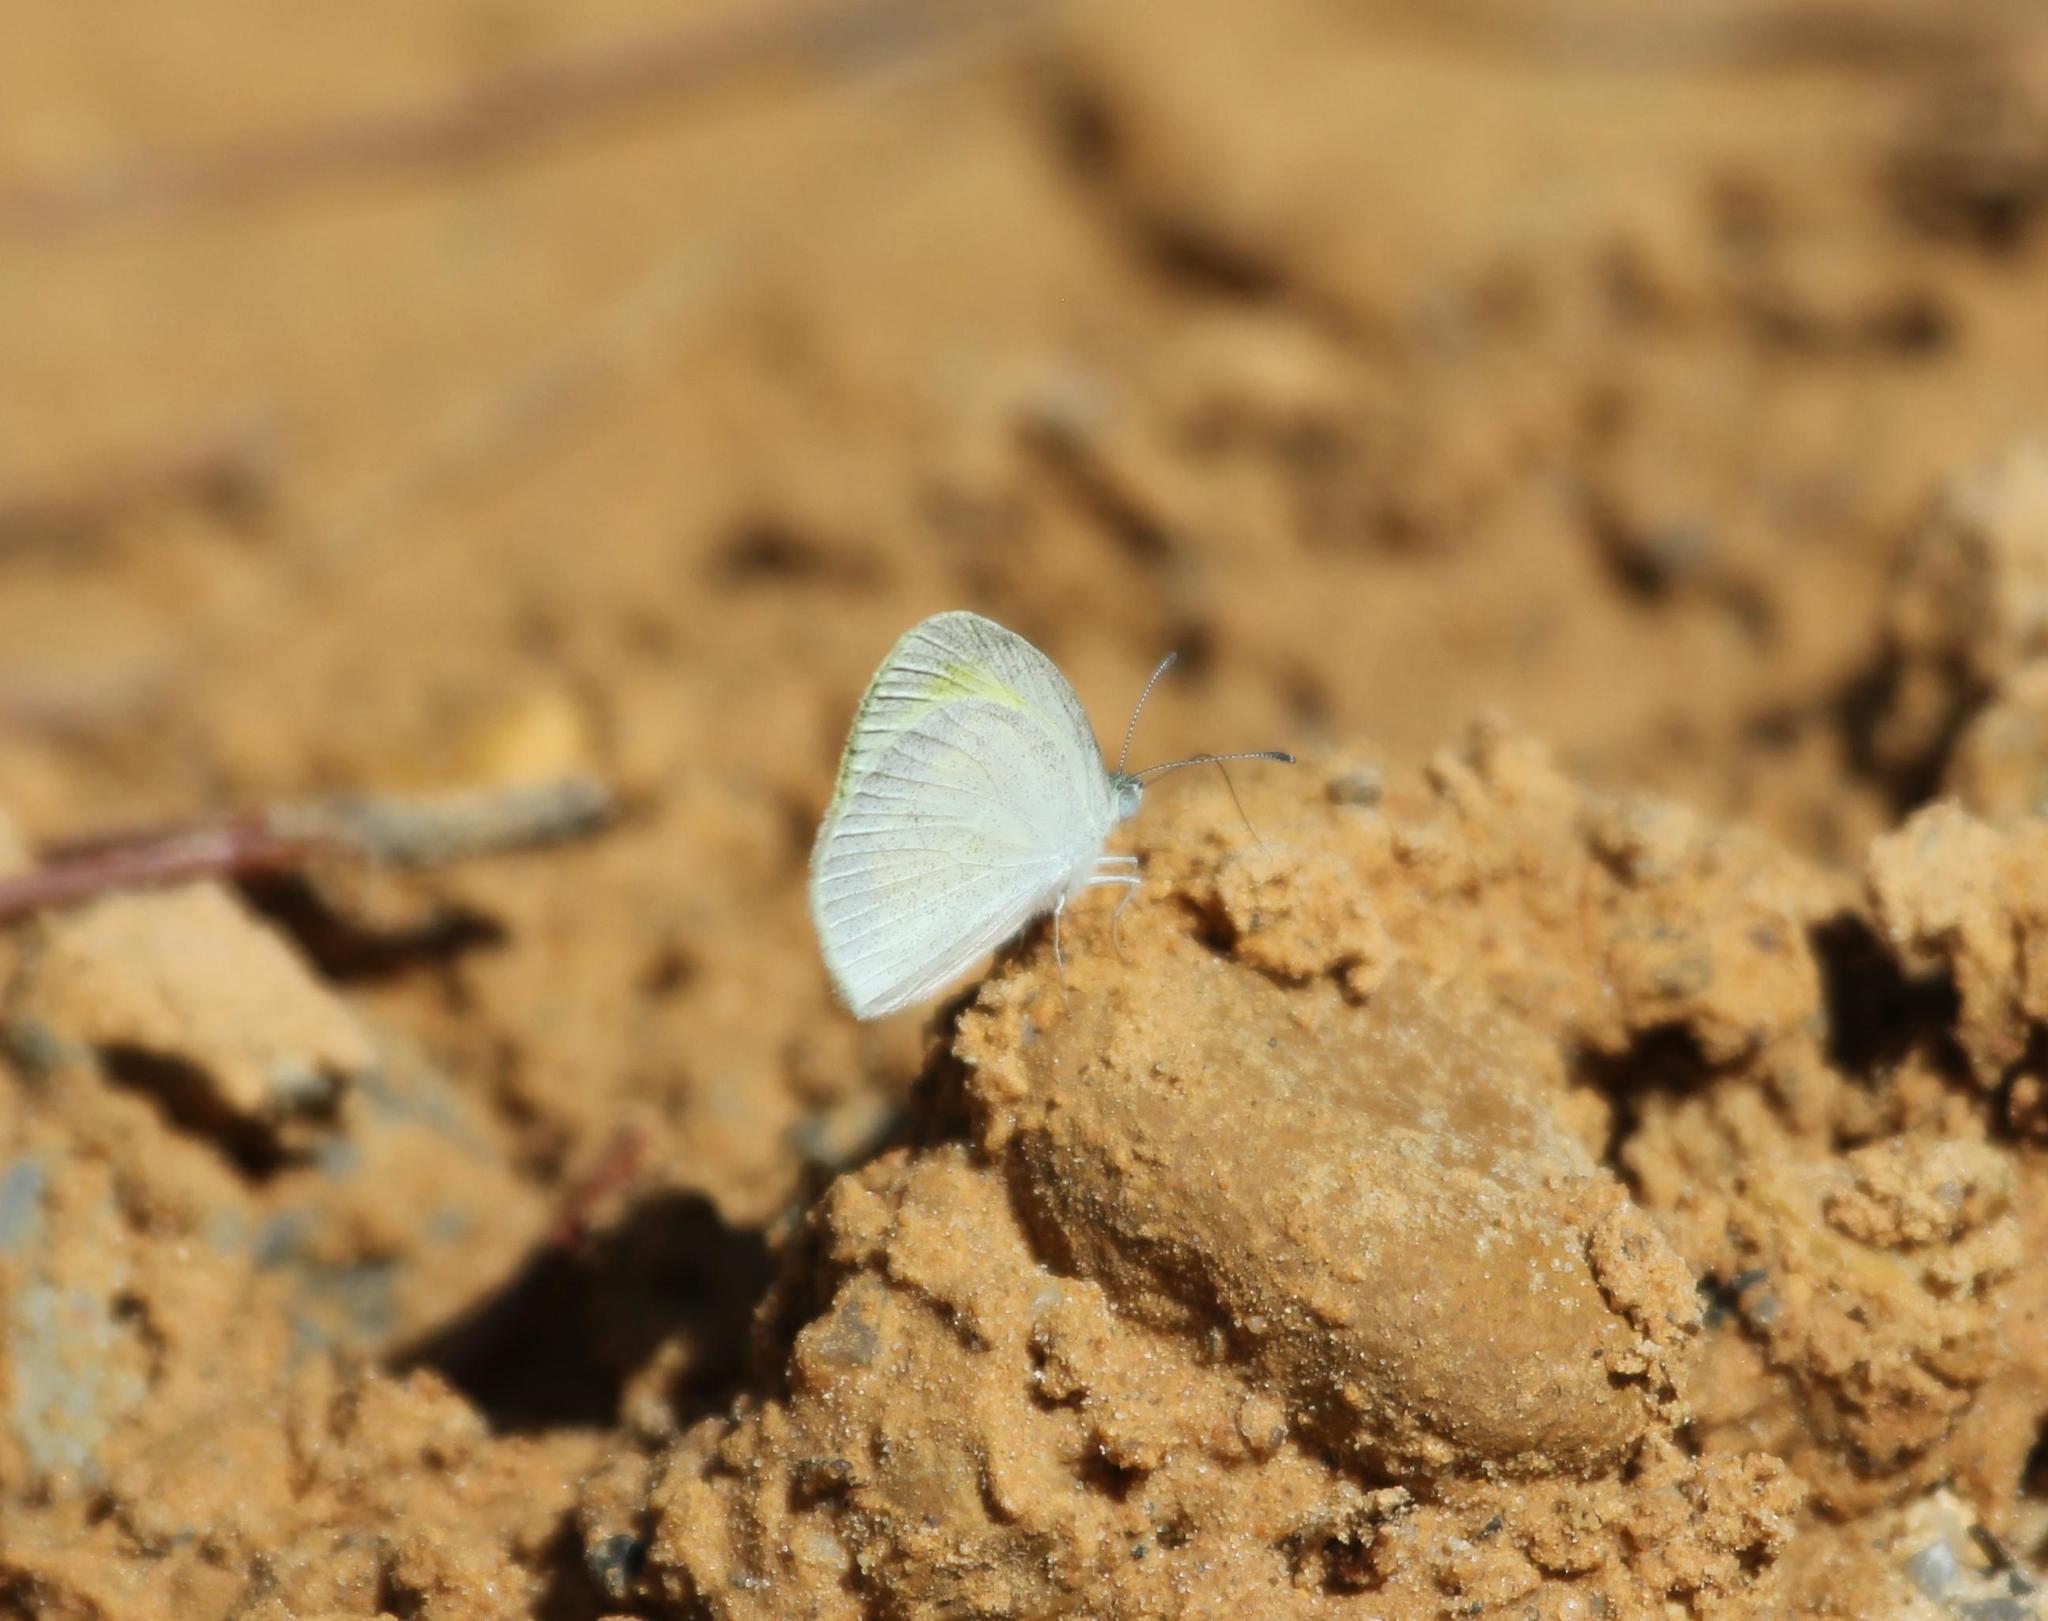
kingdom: Animalia
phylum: Arthropoda
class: Insecta
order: Lepidoptera
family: Pieridae
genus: Eurema
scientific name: Eurema daira
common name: Barred sulphur
